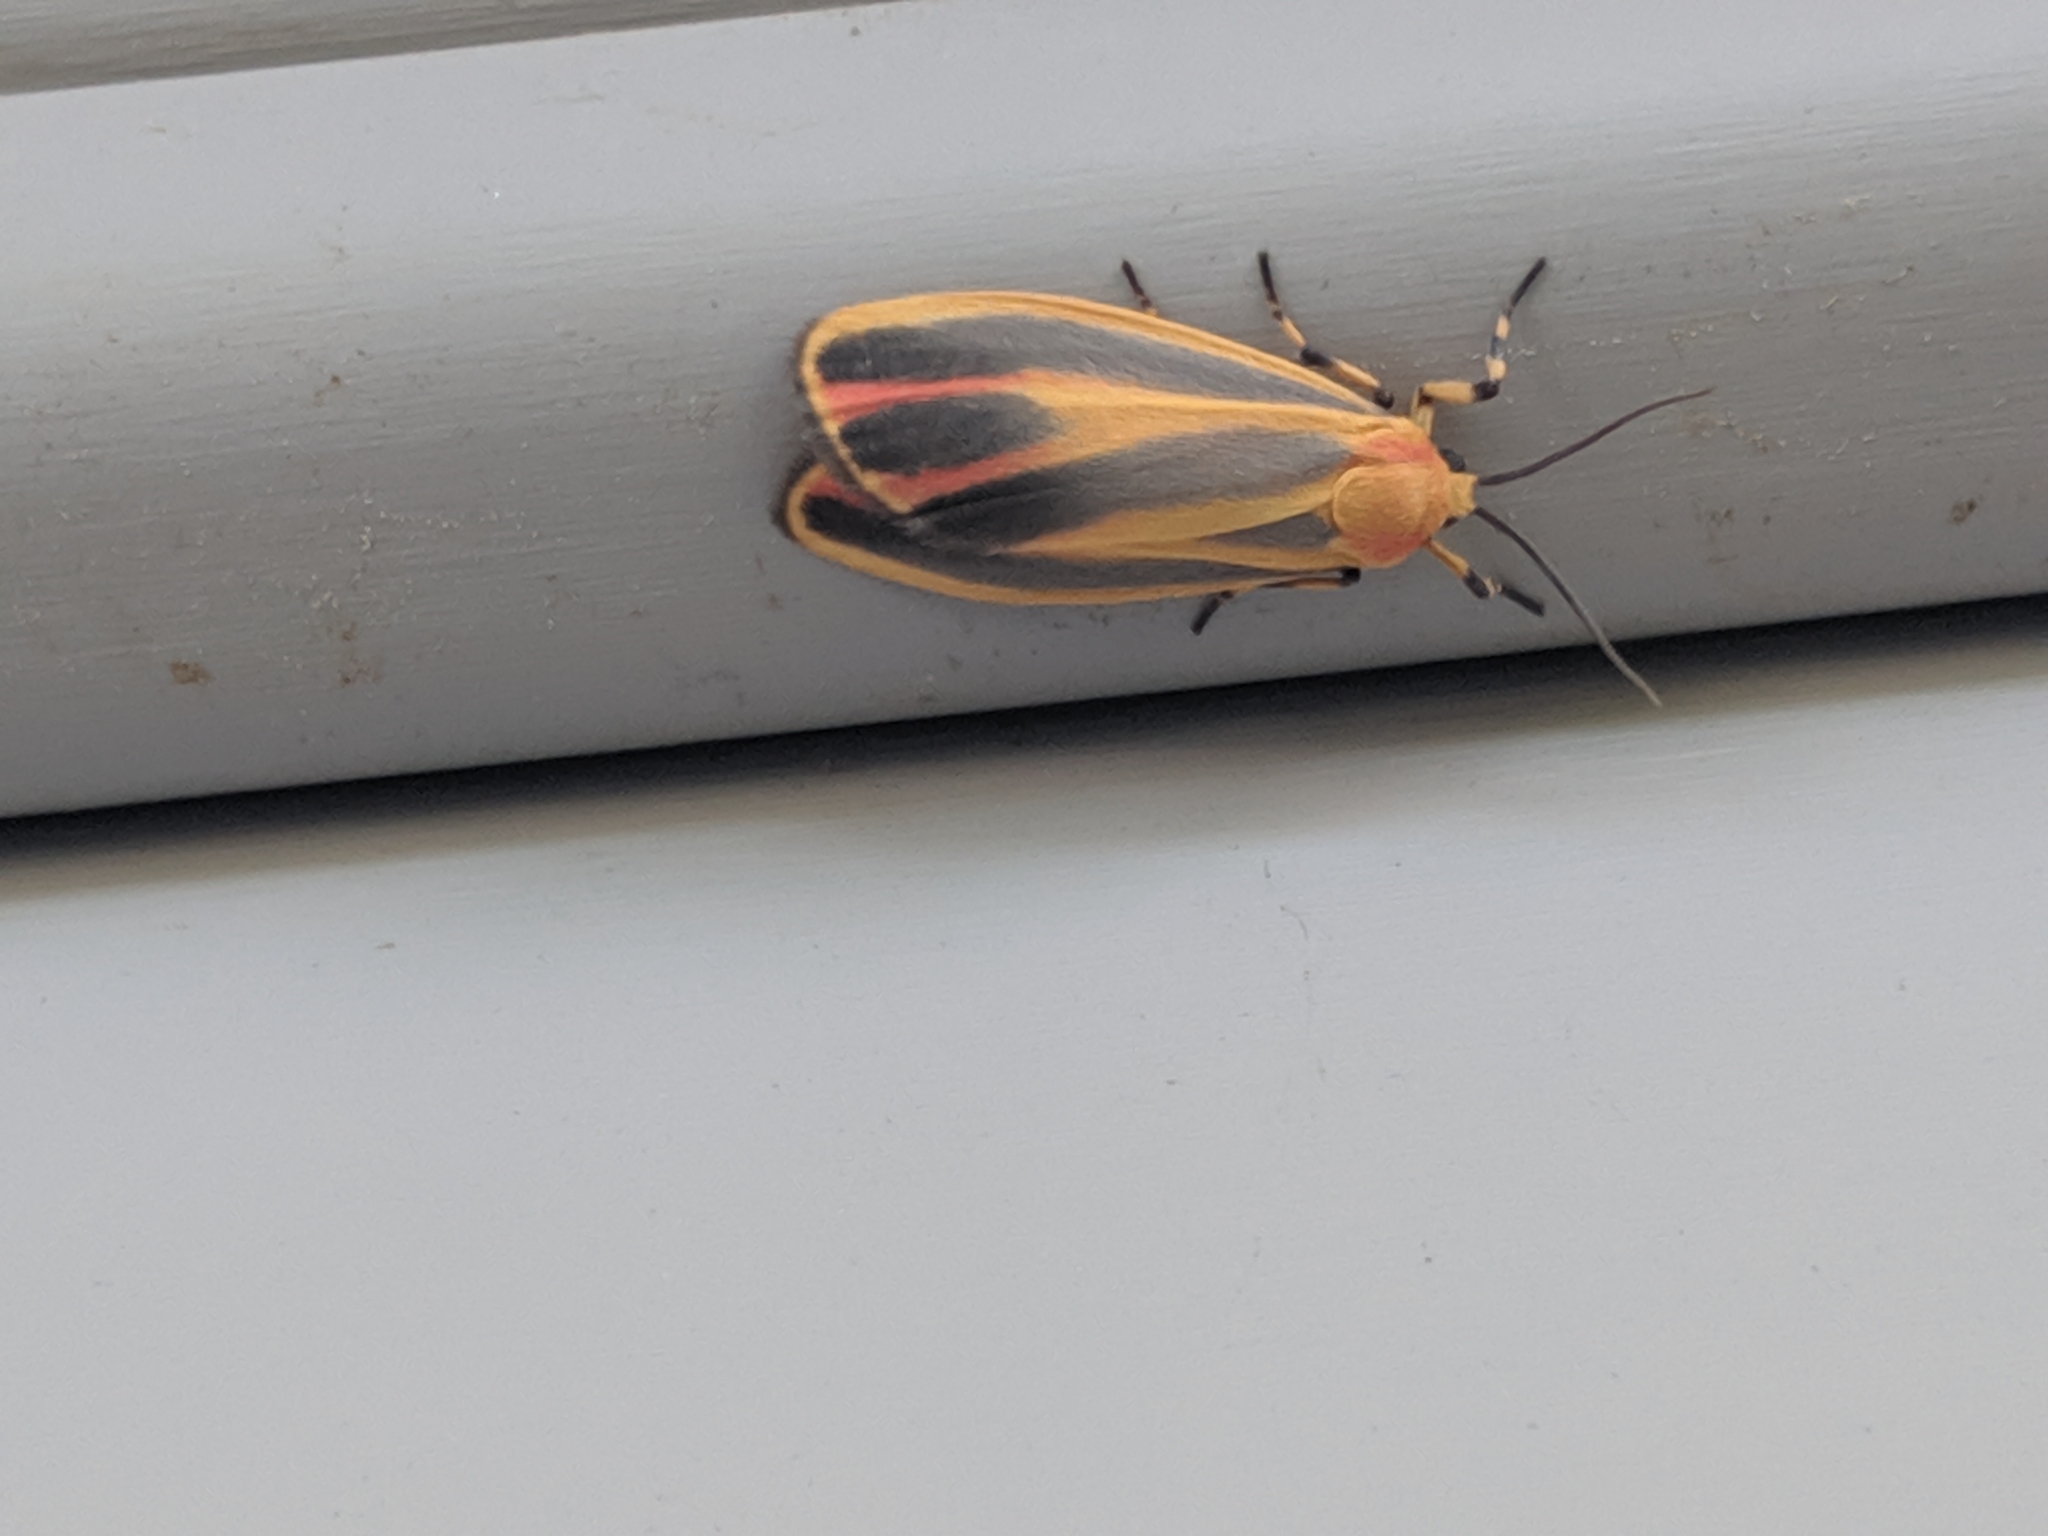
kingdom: Animalia
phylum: Arthropoda
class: Insecta
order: Lepidoptera
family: Erebidae
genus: Hypoprepia
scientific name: Hypoprepia fucosa
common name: Painted lichen moth
